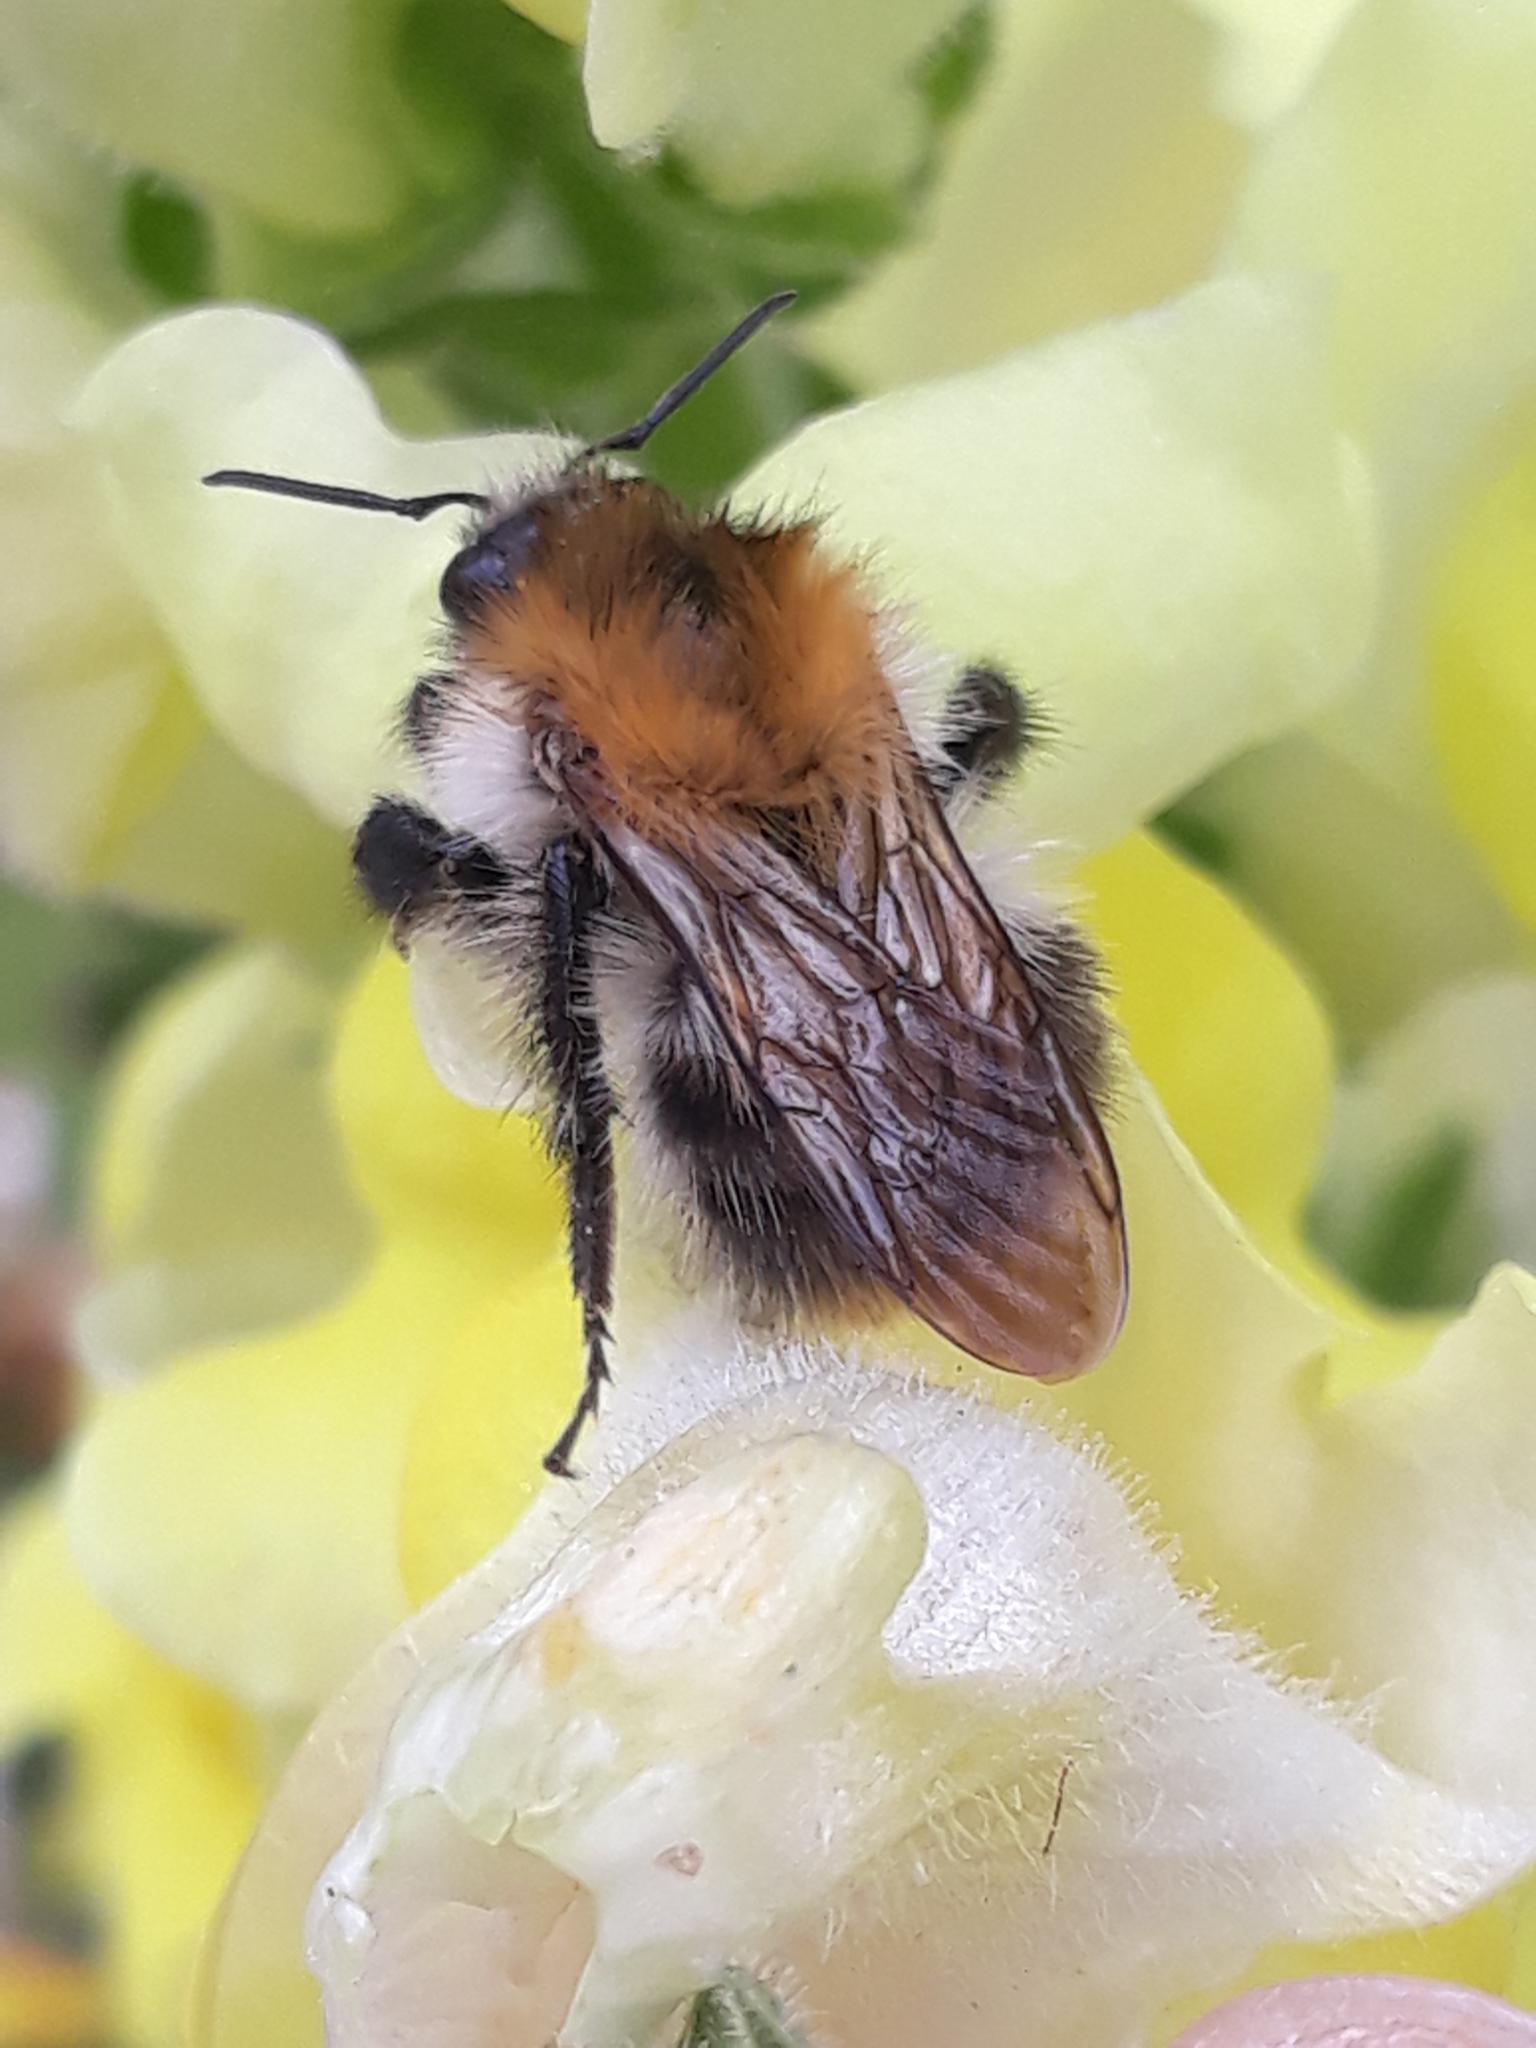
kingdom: Animalia
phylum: Arthropoda
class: Insecta
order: Hymenoptera
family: Apidae
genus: Bombus
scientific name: Bombus pascuorum
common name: Common carder bee
